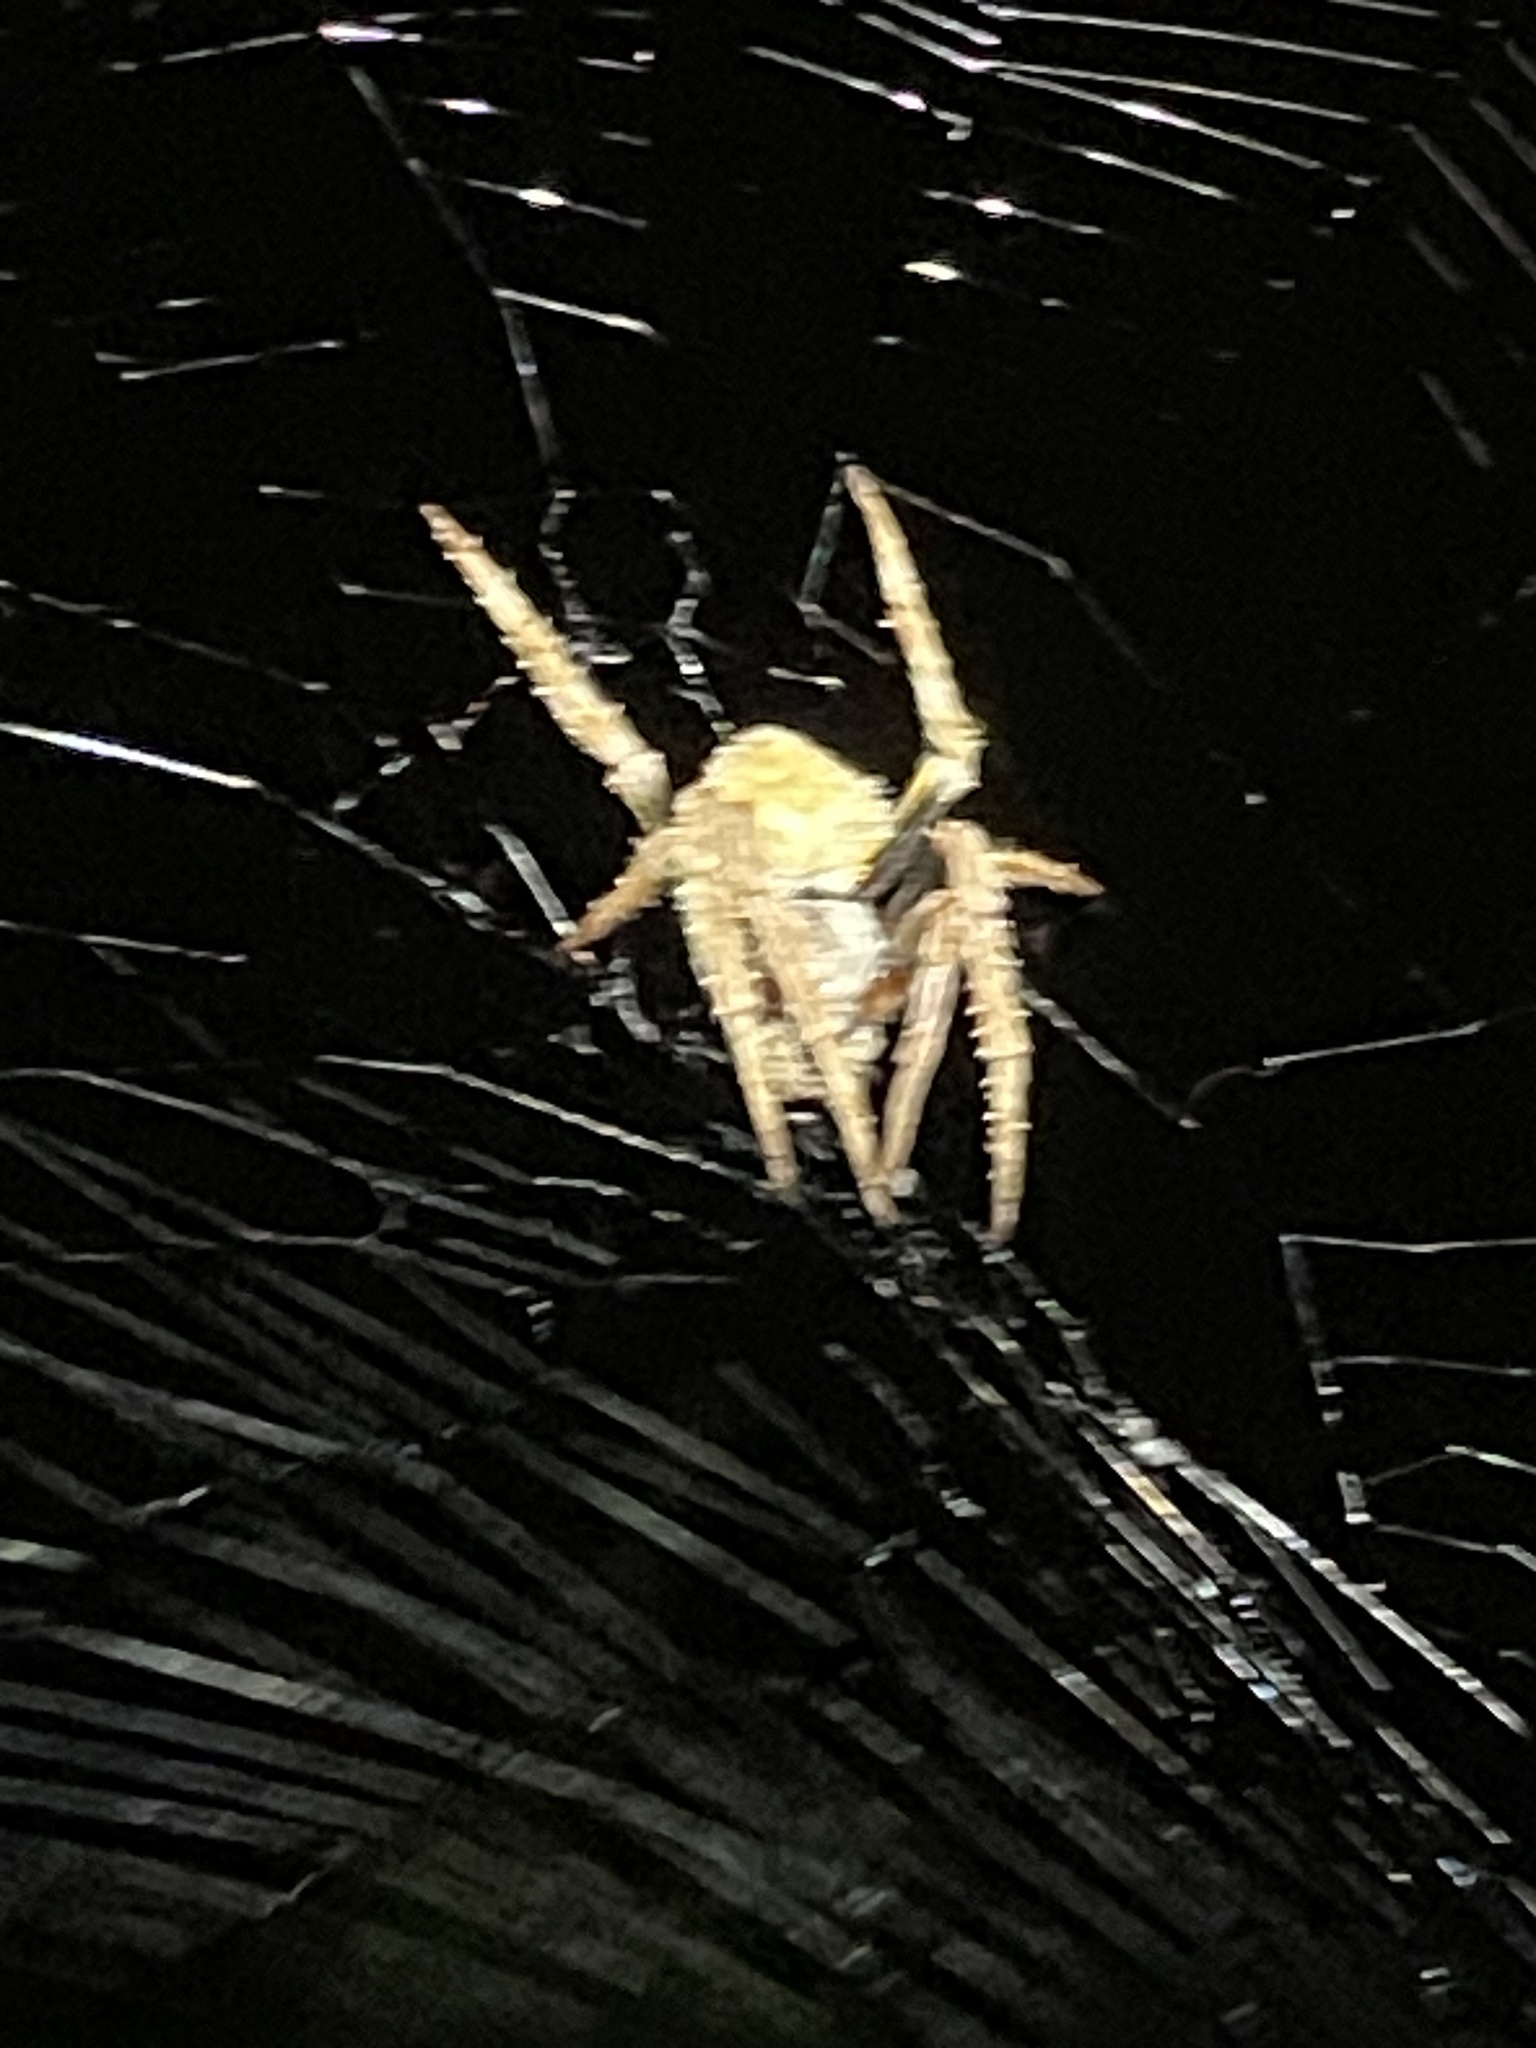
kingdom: Animalia
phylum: Arthropoda
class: Arachnida
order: Araneae
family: Araneidae
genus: Eriophora
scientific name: Eriophora ravilla
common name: Orb weavers
